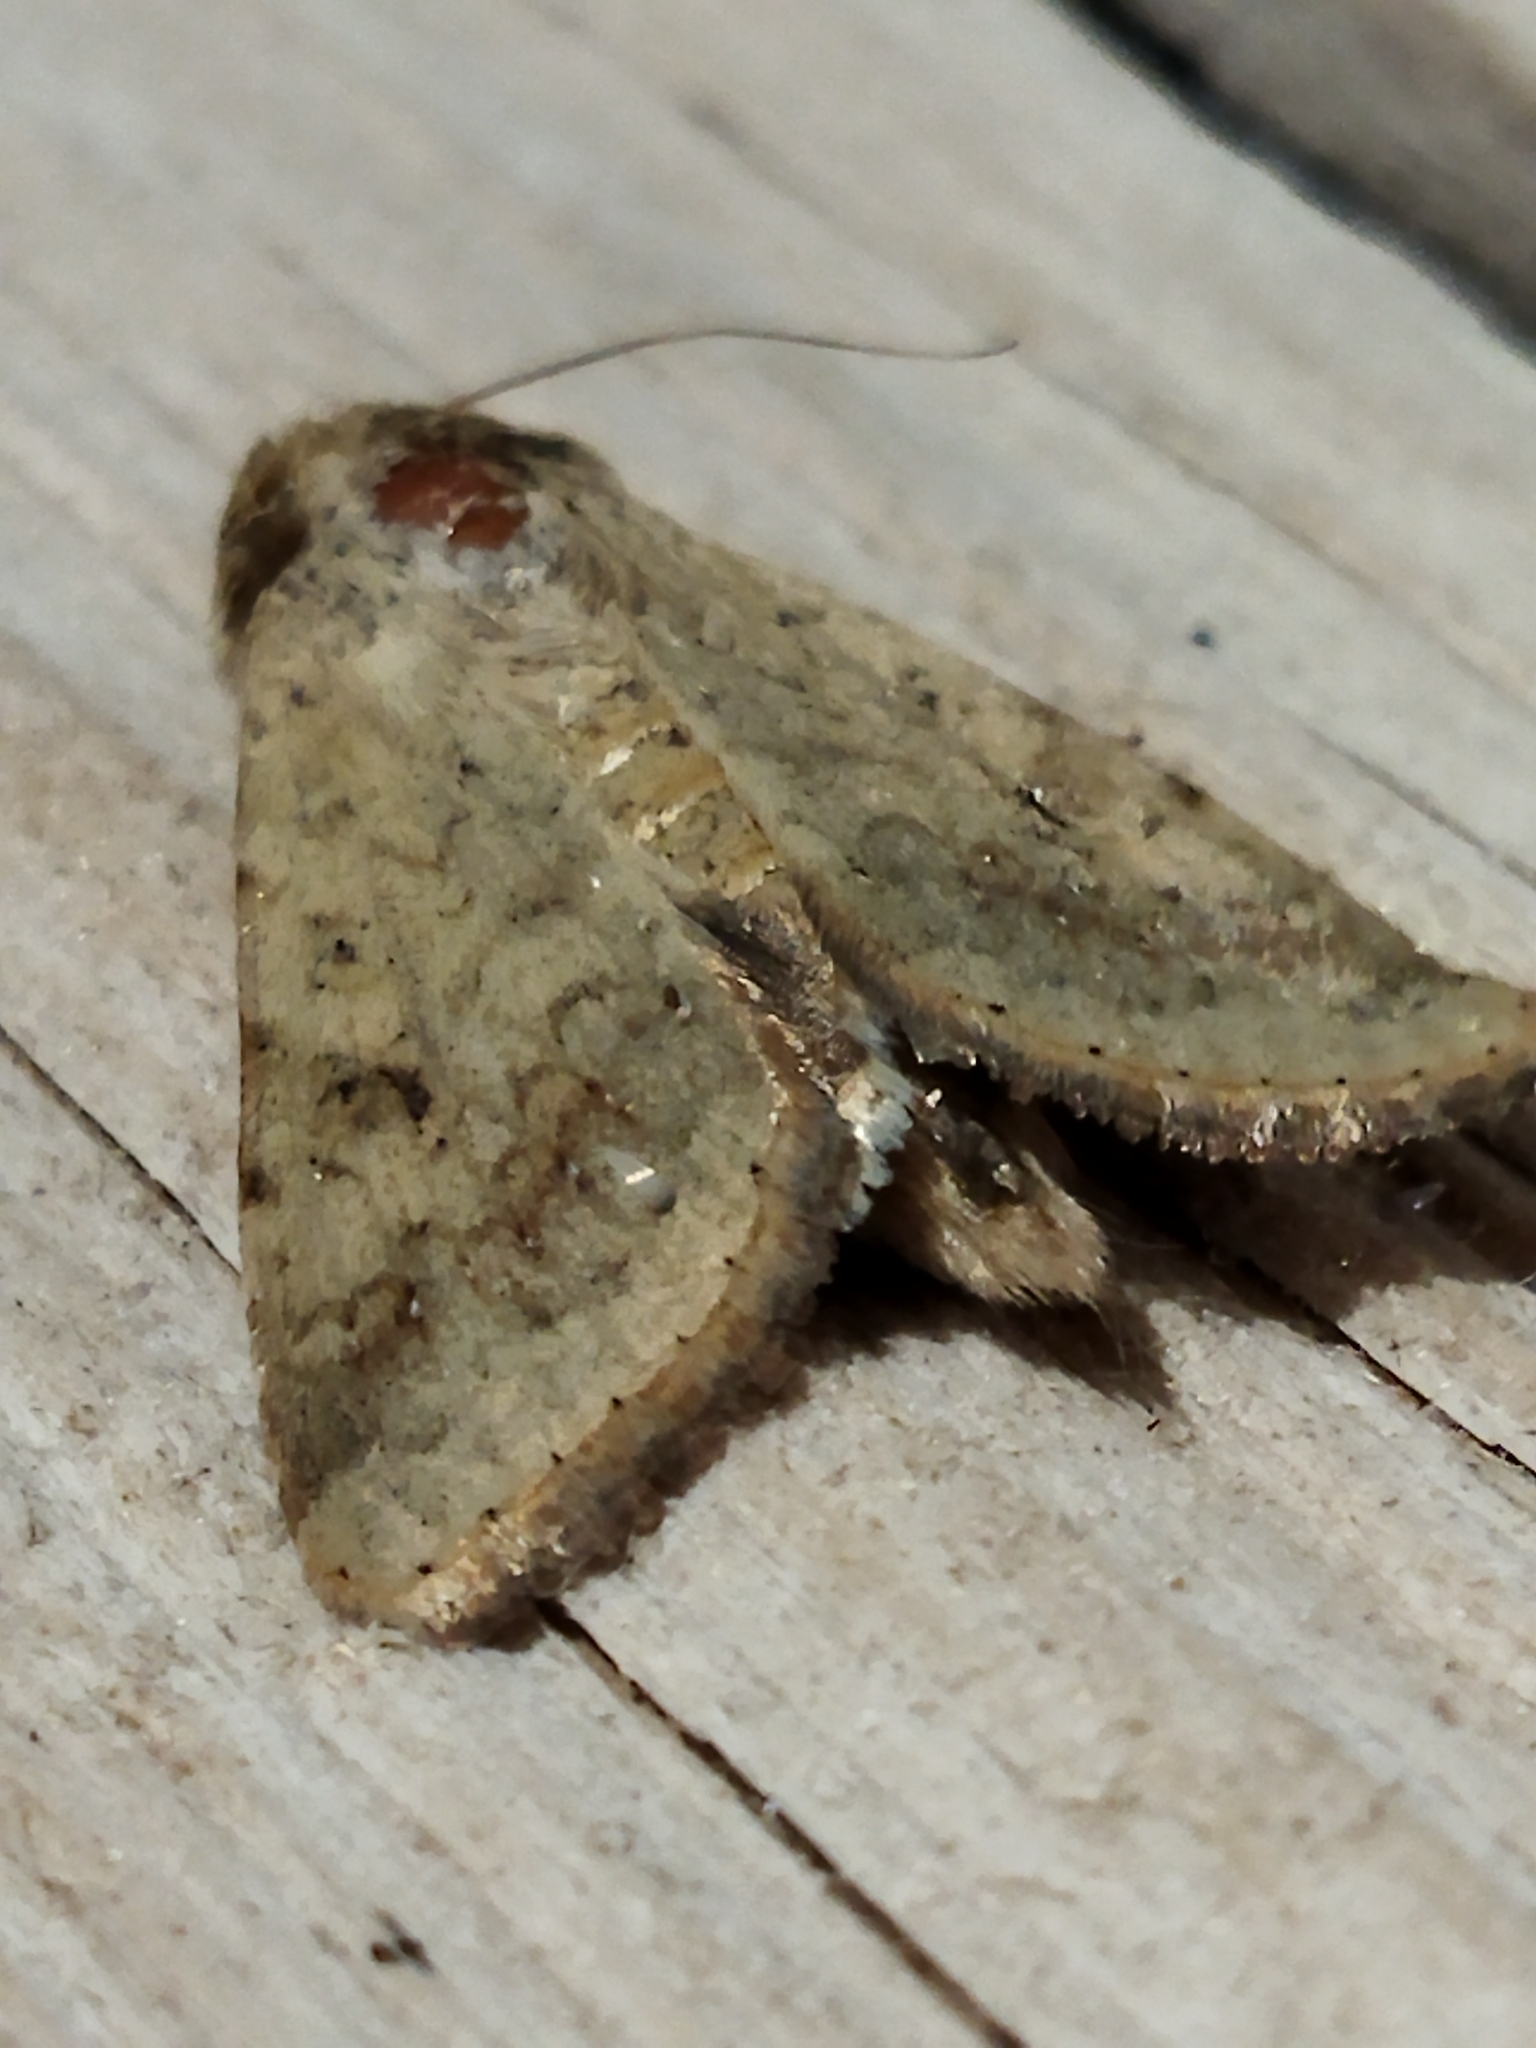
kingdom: Animalia
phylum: Arthropoda
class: Insecta
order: Lepidoptera
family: Noctuidae
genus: Helicoverpa
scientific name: Helicoverpa armigera
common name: Cotton bollworm
